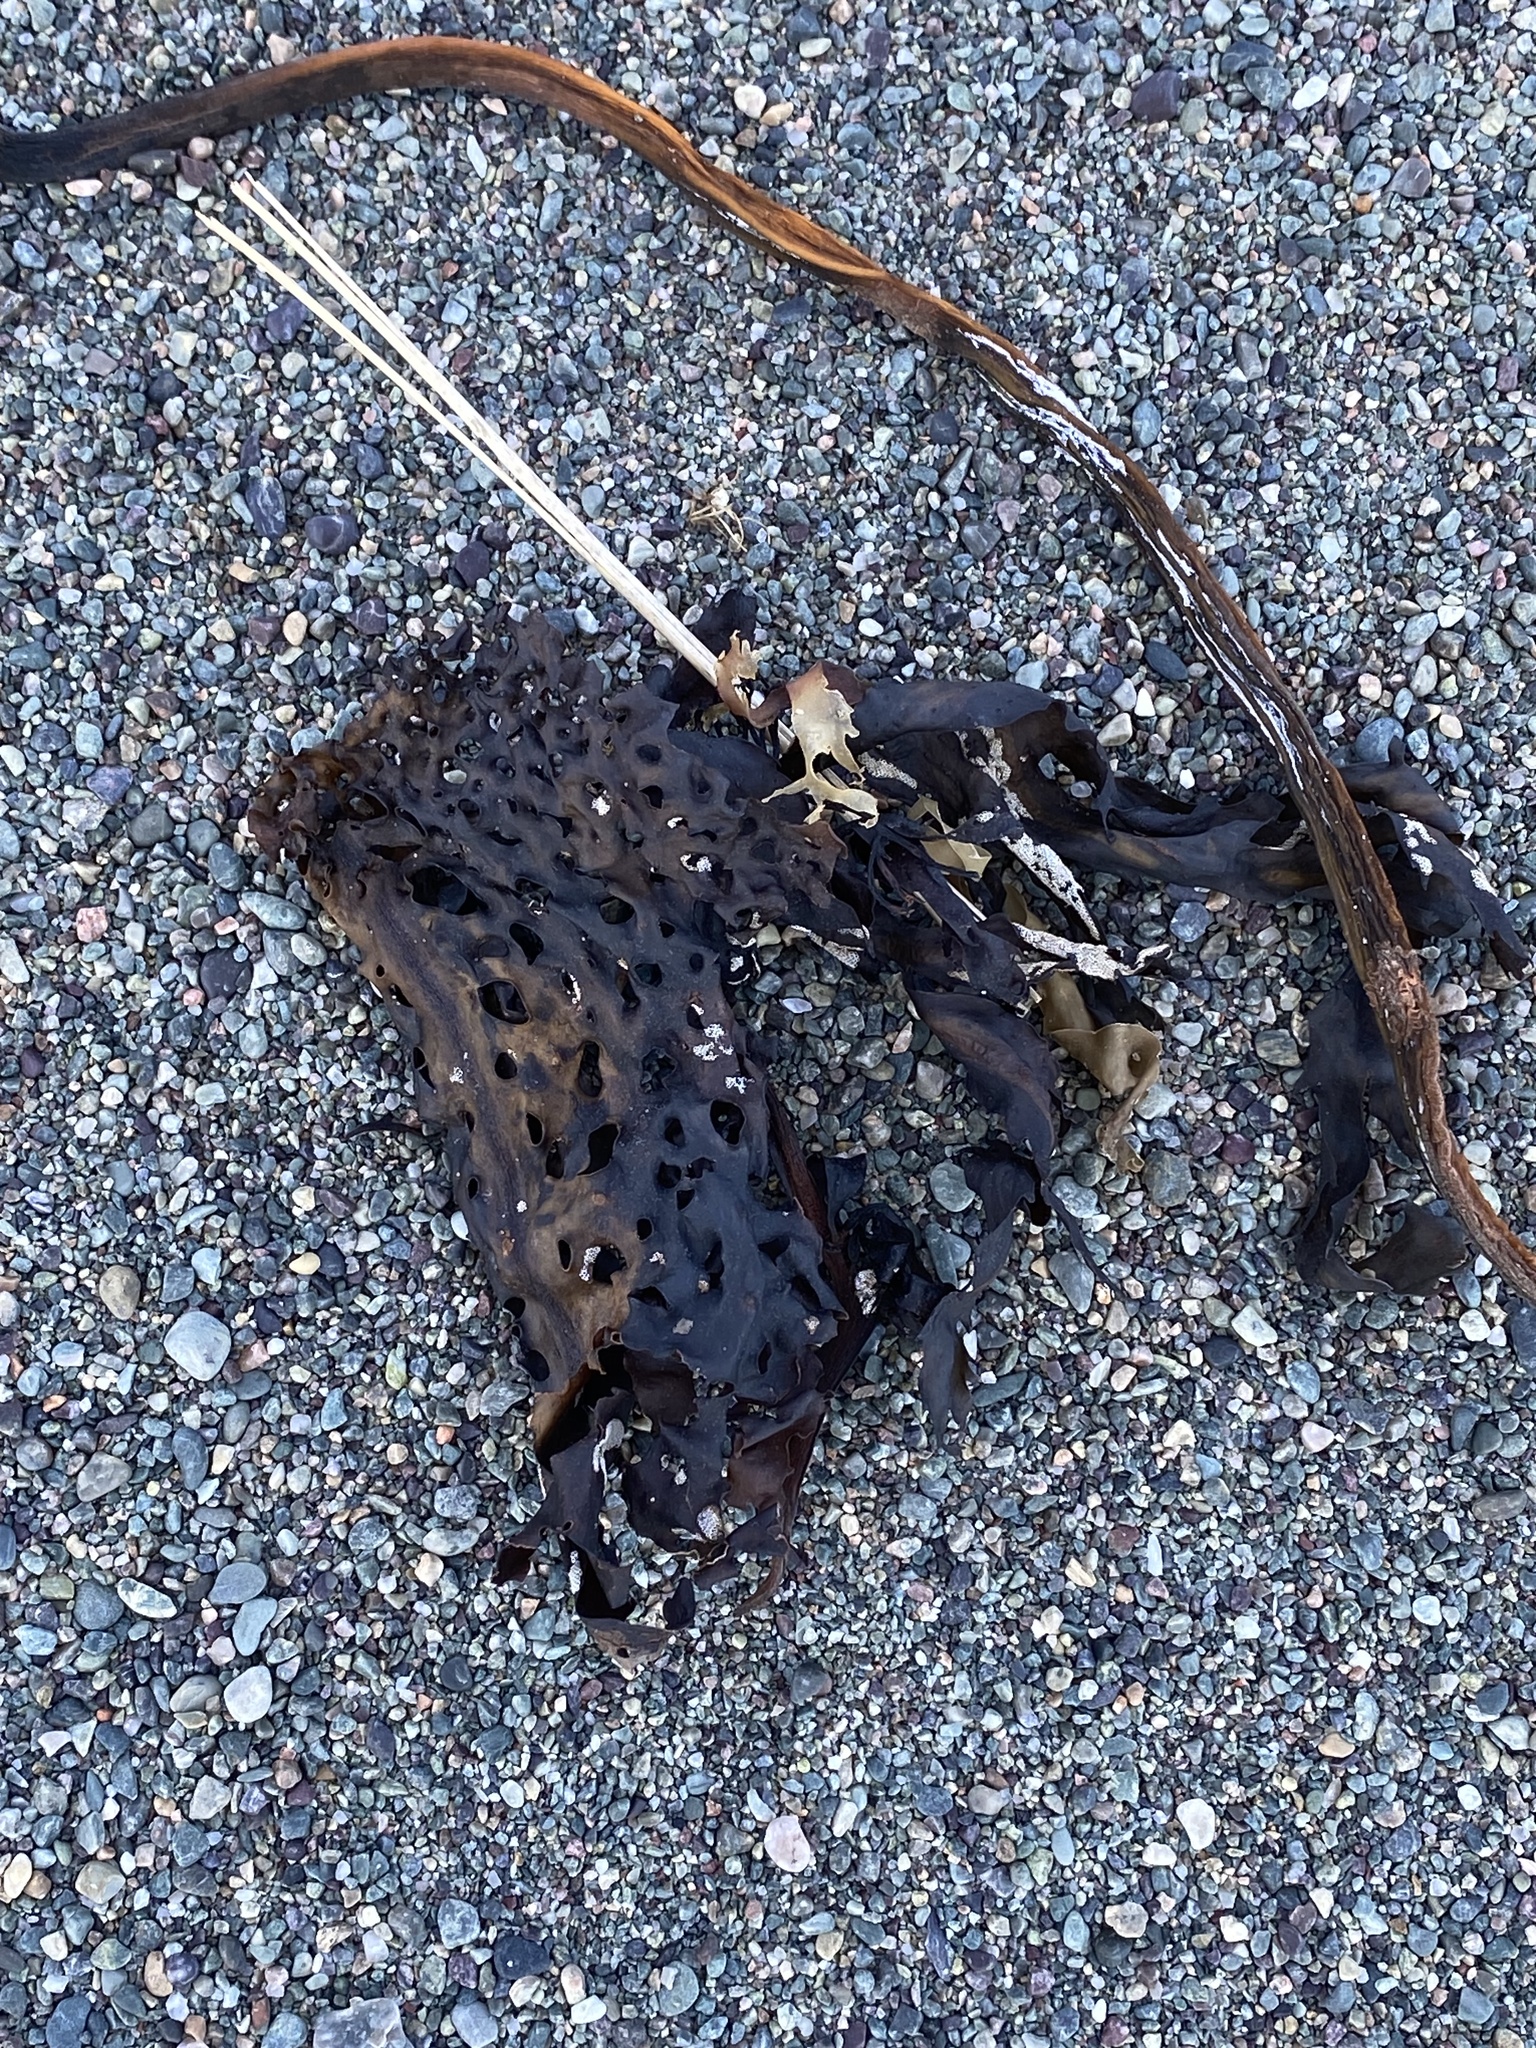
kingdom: Chromista
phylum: Ochrophyta
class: Phaeophyceae
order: Laminariales
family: Costariaceae
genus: Agarum
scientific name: Agarum clathratum
